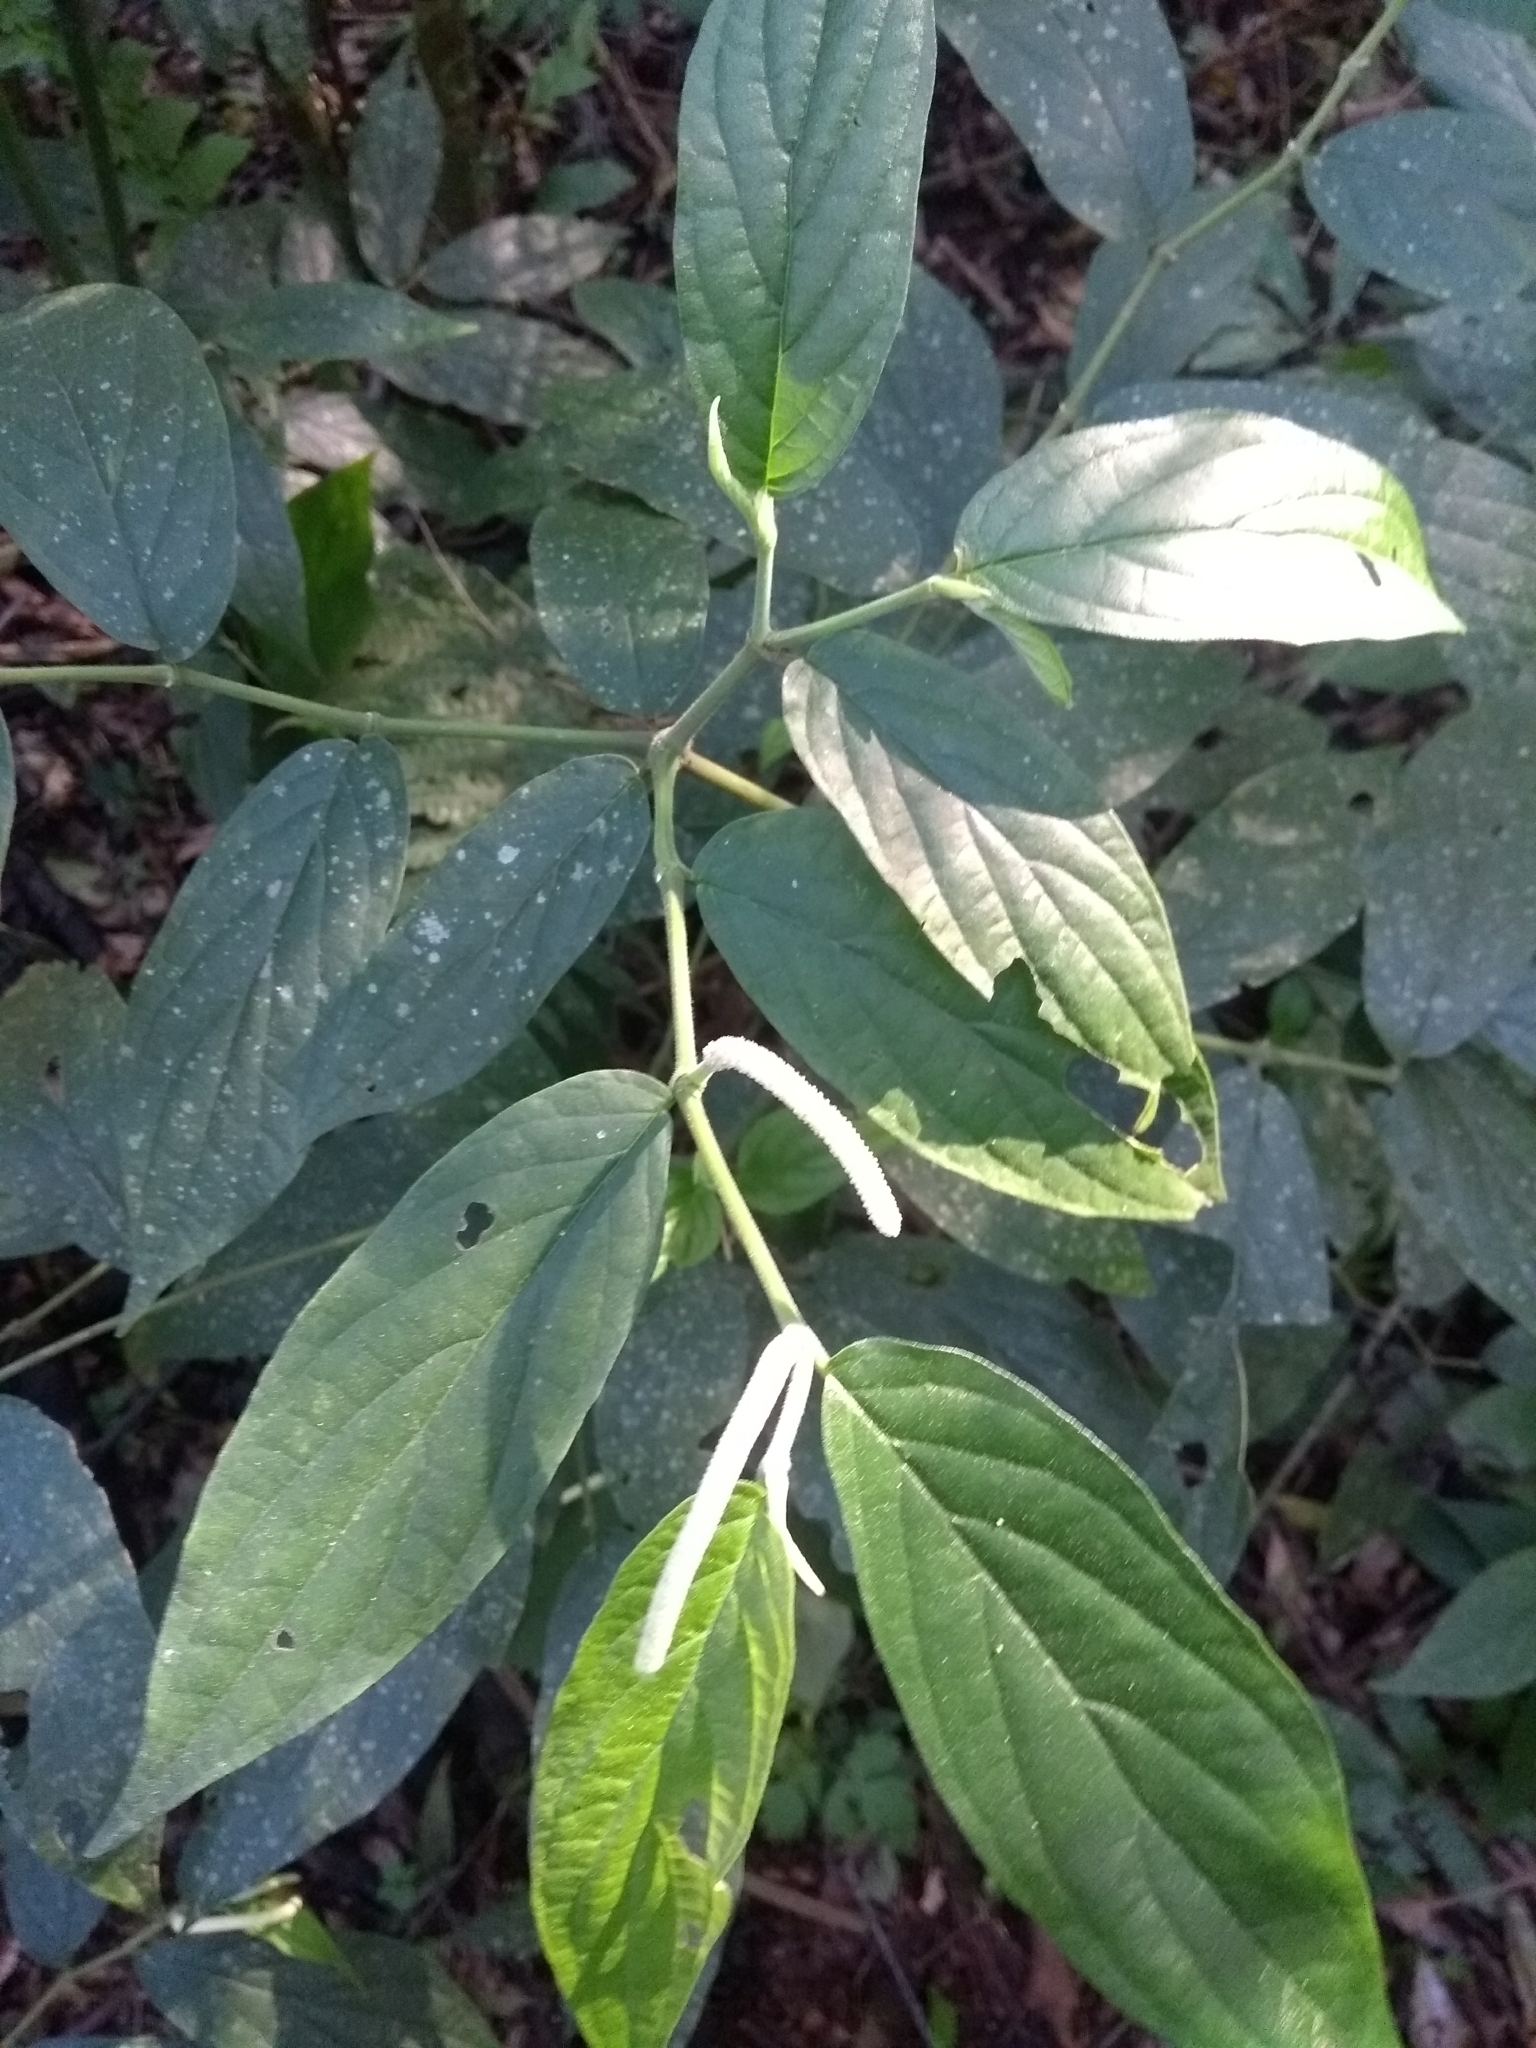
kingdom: Plantae
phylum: Tracheophyta
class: Magnoliopsida
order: Piperales
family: Piperaceae
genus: Piper
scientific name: Piper aduncum
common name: Spiked pepper
